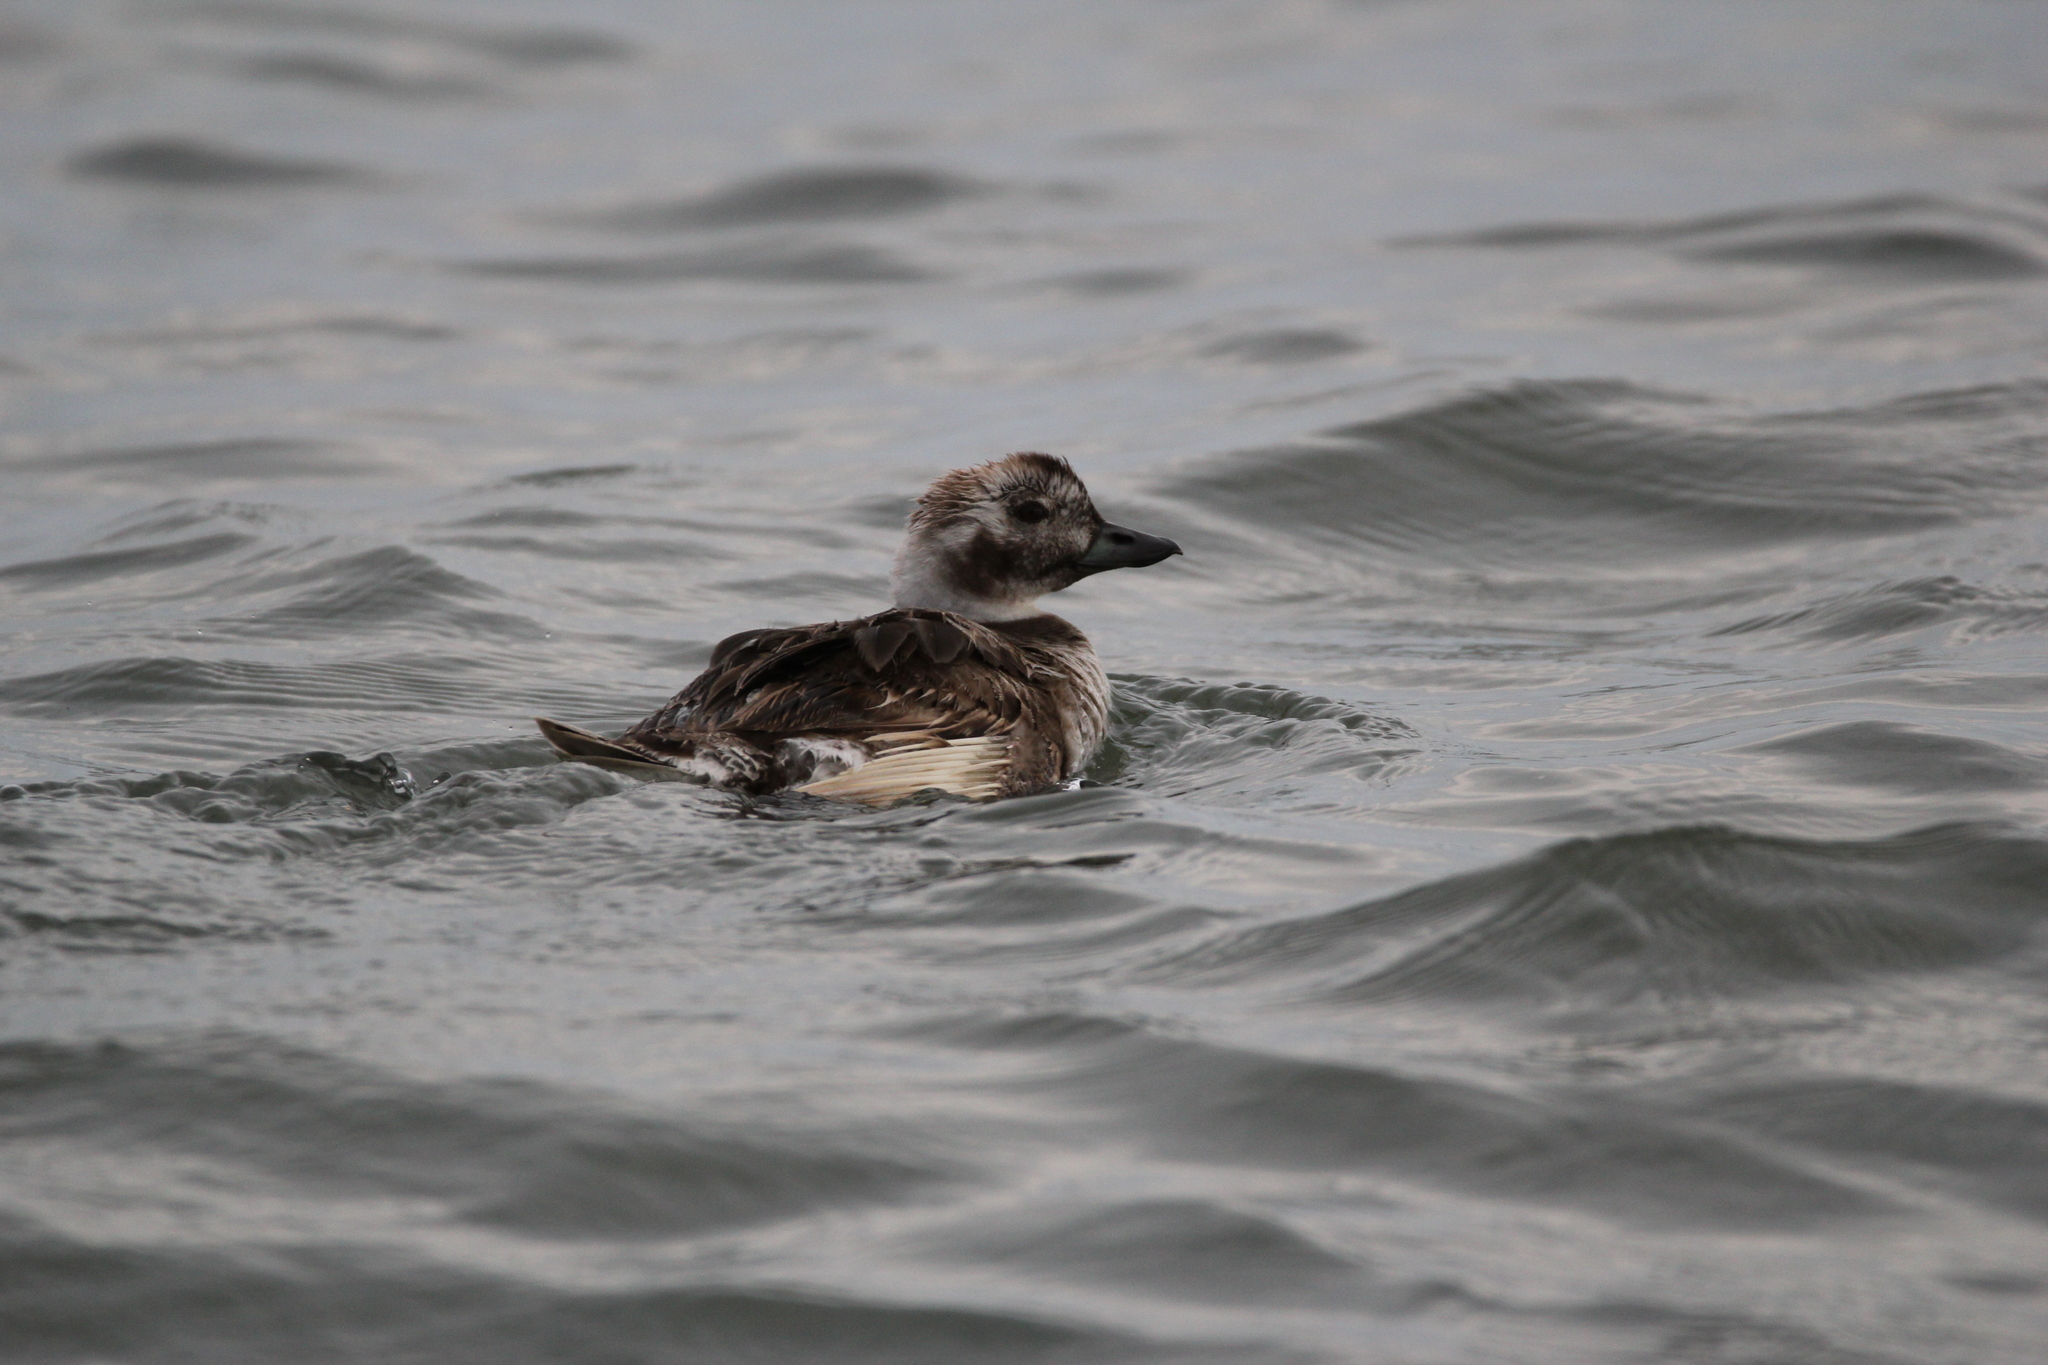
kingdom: Animalia
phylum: Chordata
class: Aves
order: Anseriformes
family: Anatidae
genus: Clangula
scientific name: Clangula hyemalis
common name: Long-tailed duck
